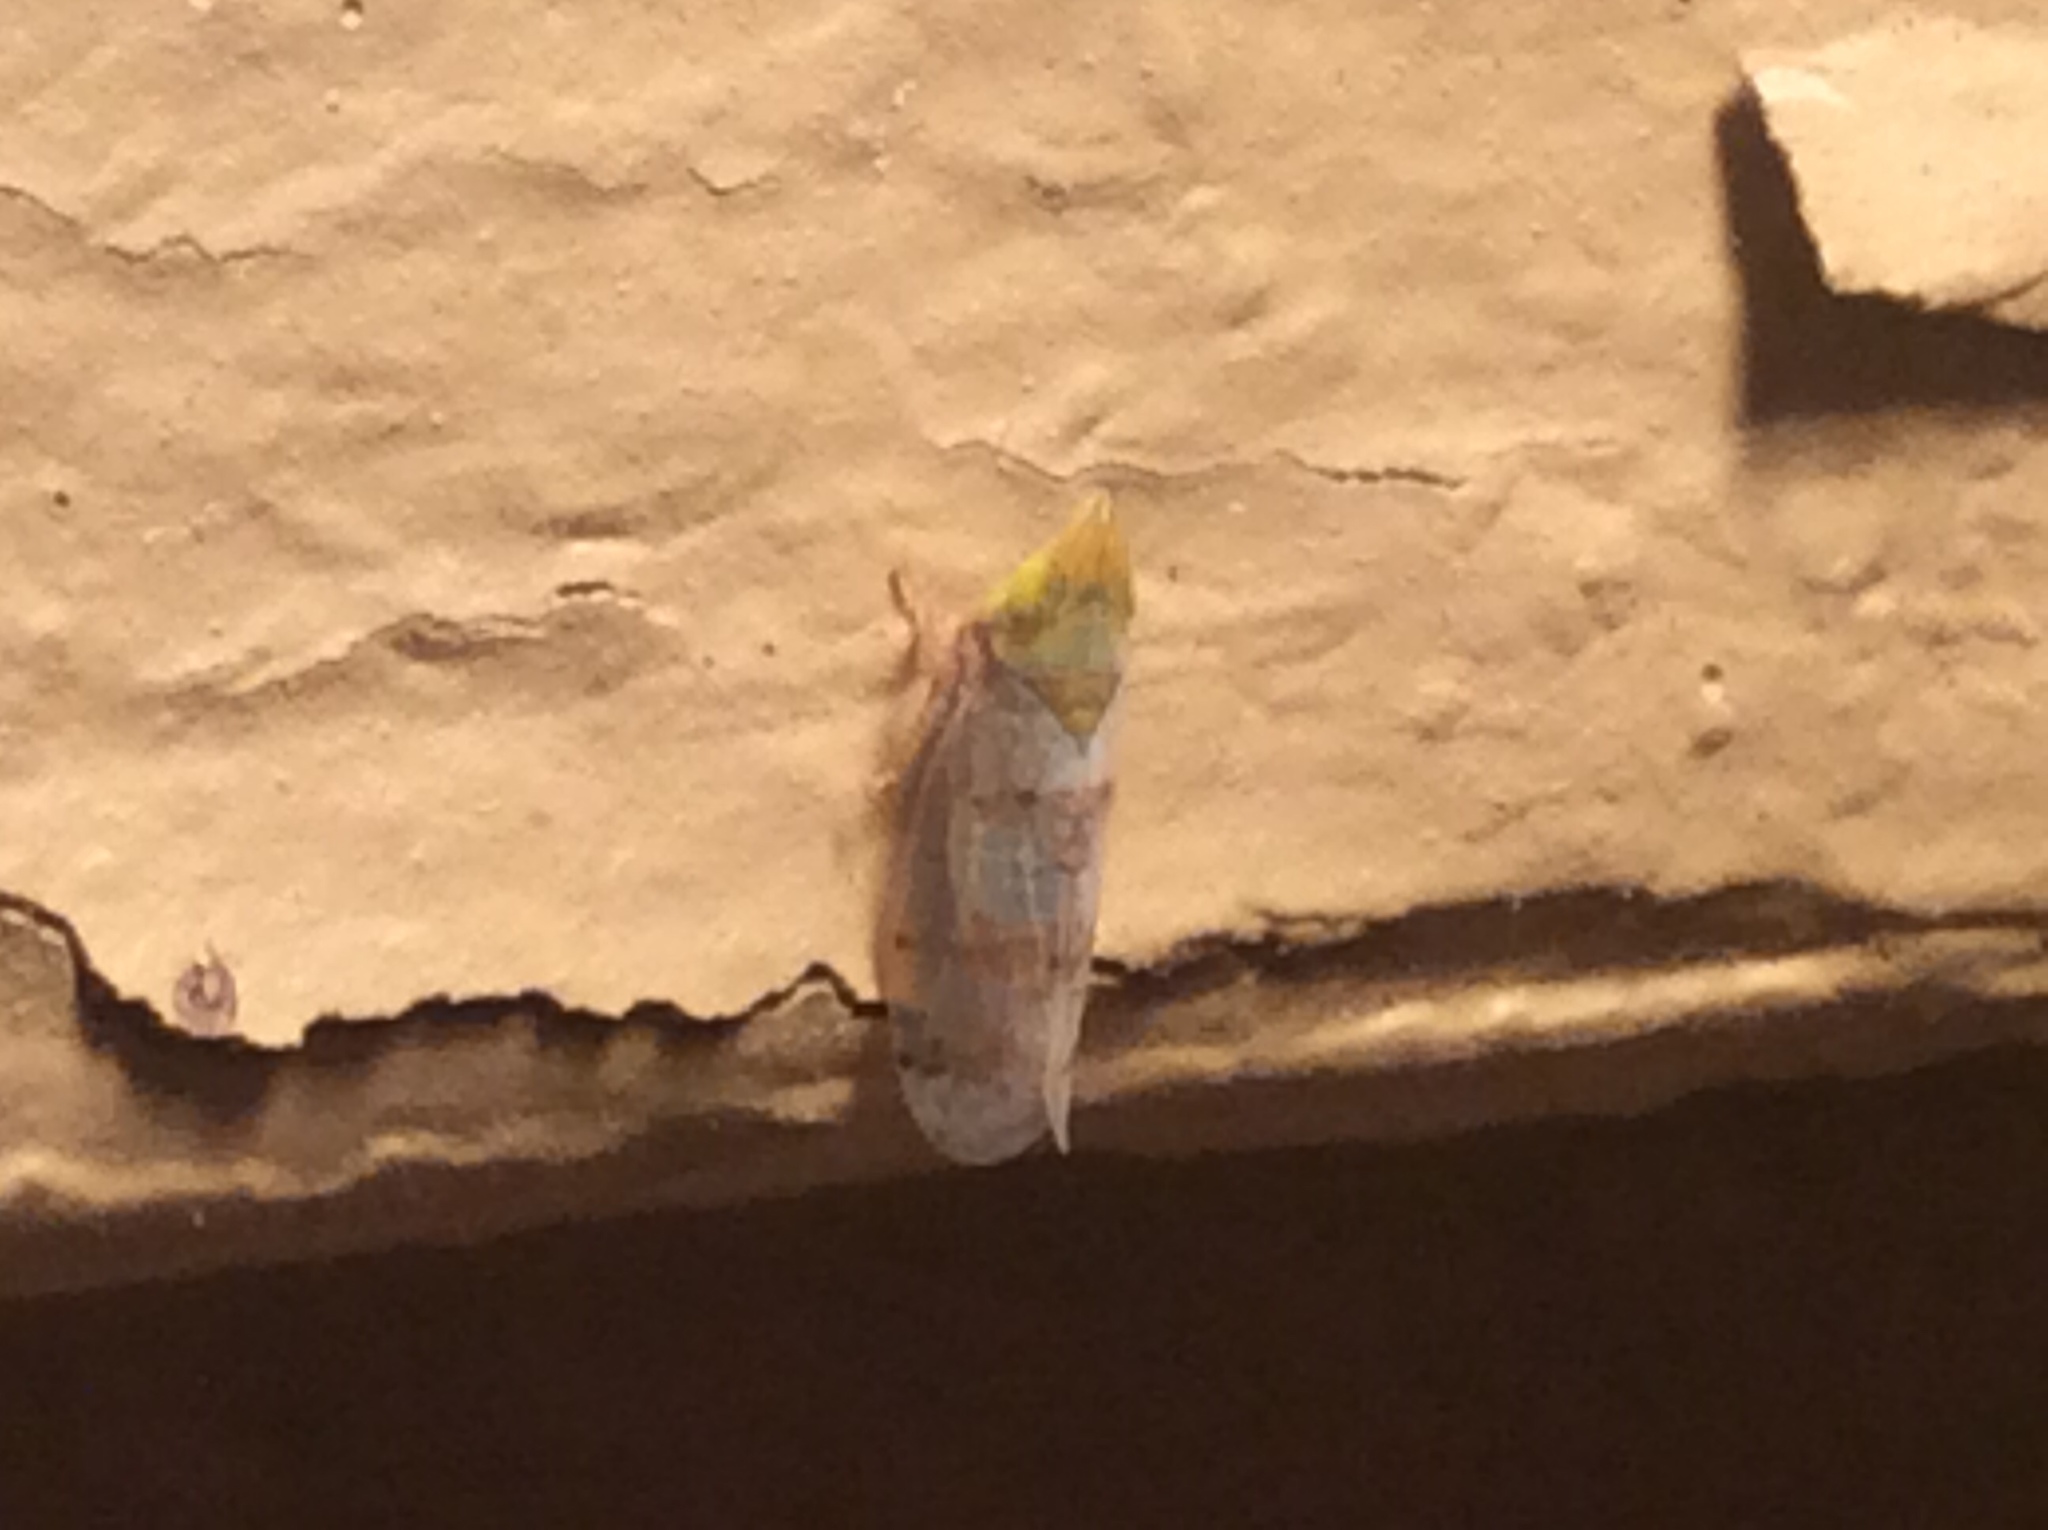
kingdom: Animalia
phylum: Arthropoda
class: Insecta
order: Hemiptera
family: Cicadellidae
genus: Japananus
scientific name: Japananus hyalinus
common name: The japanese maple leafhopper
